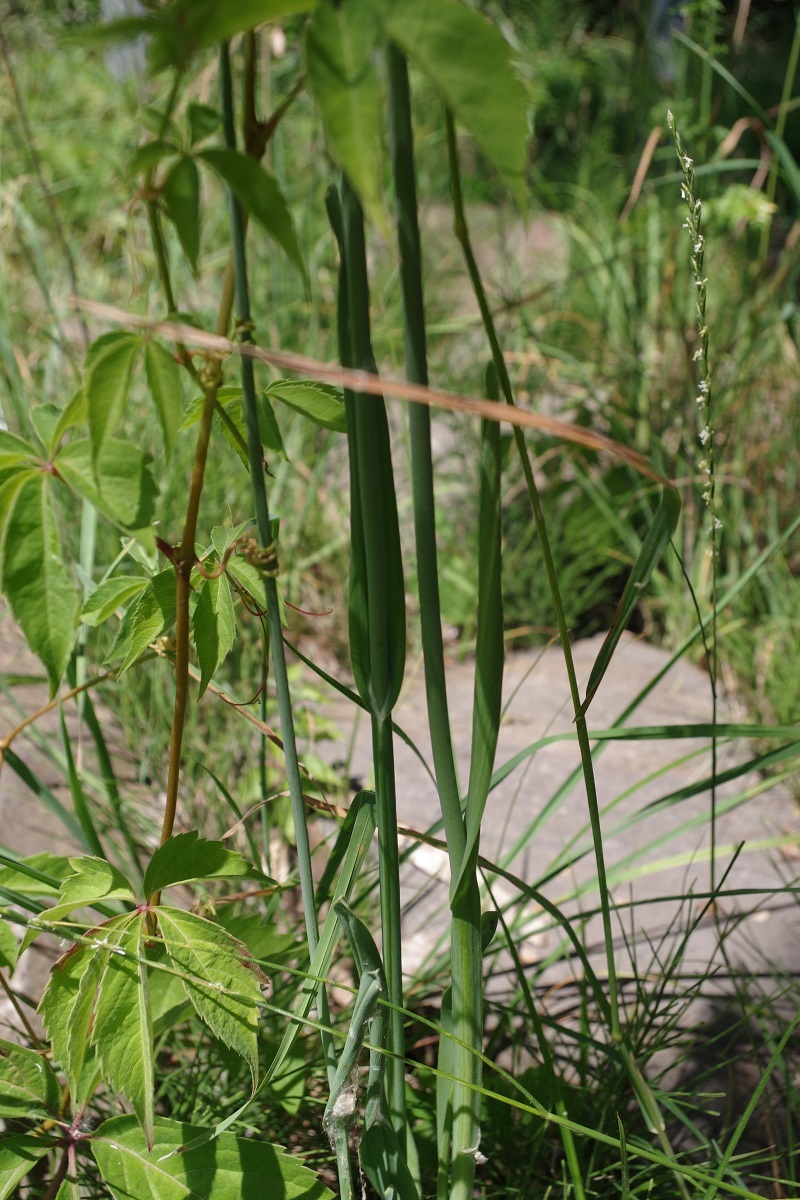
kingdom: Plantae
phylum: Tracheophyta
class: Liliopsida
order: Asparagales
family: Amaryllidaceae
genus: Allium
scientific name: Allium scorodoprasum
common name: Sand leek
